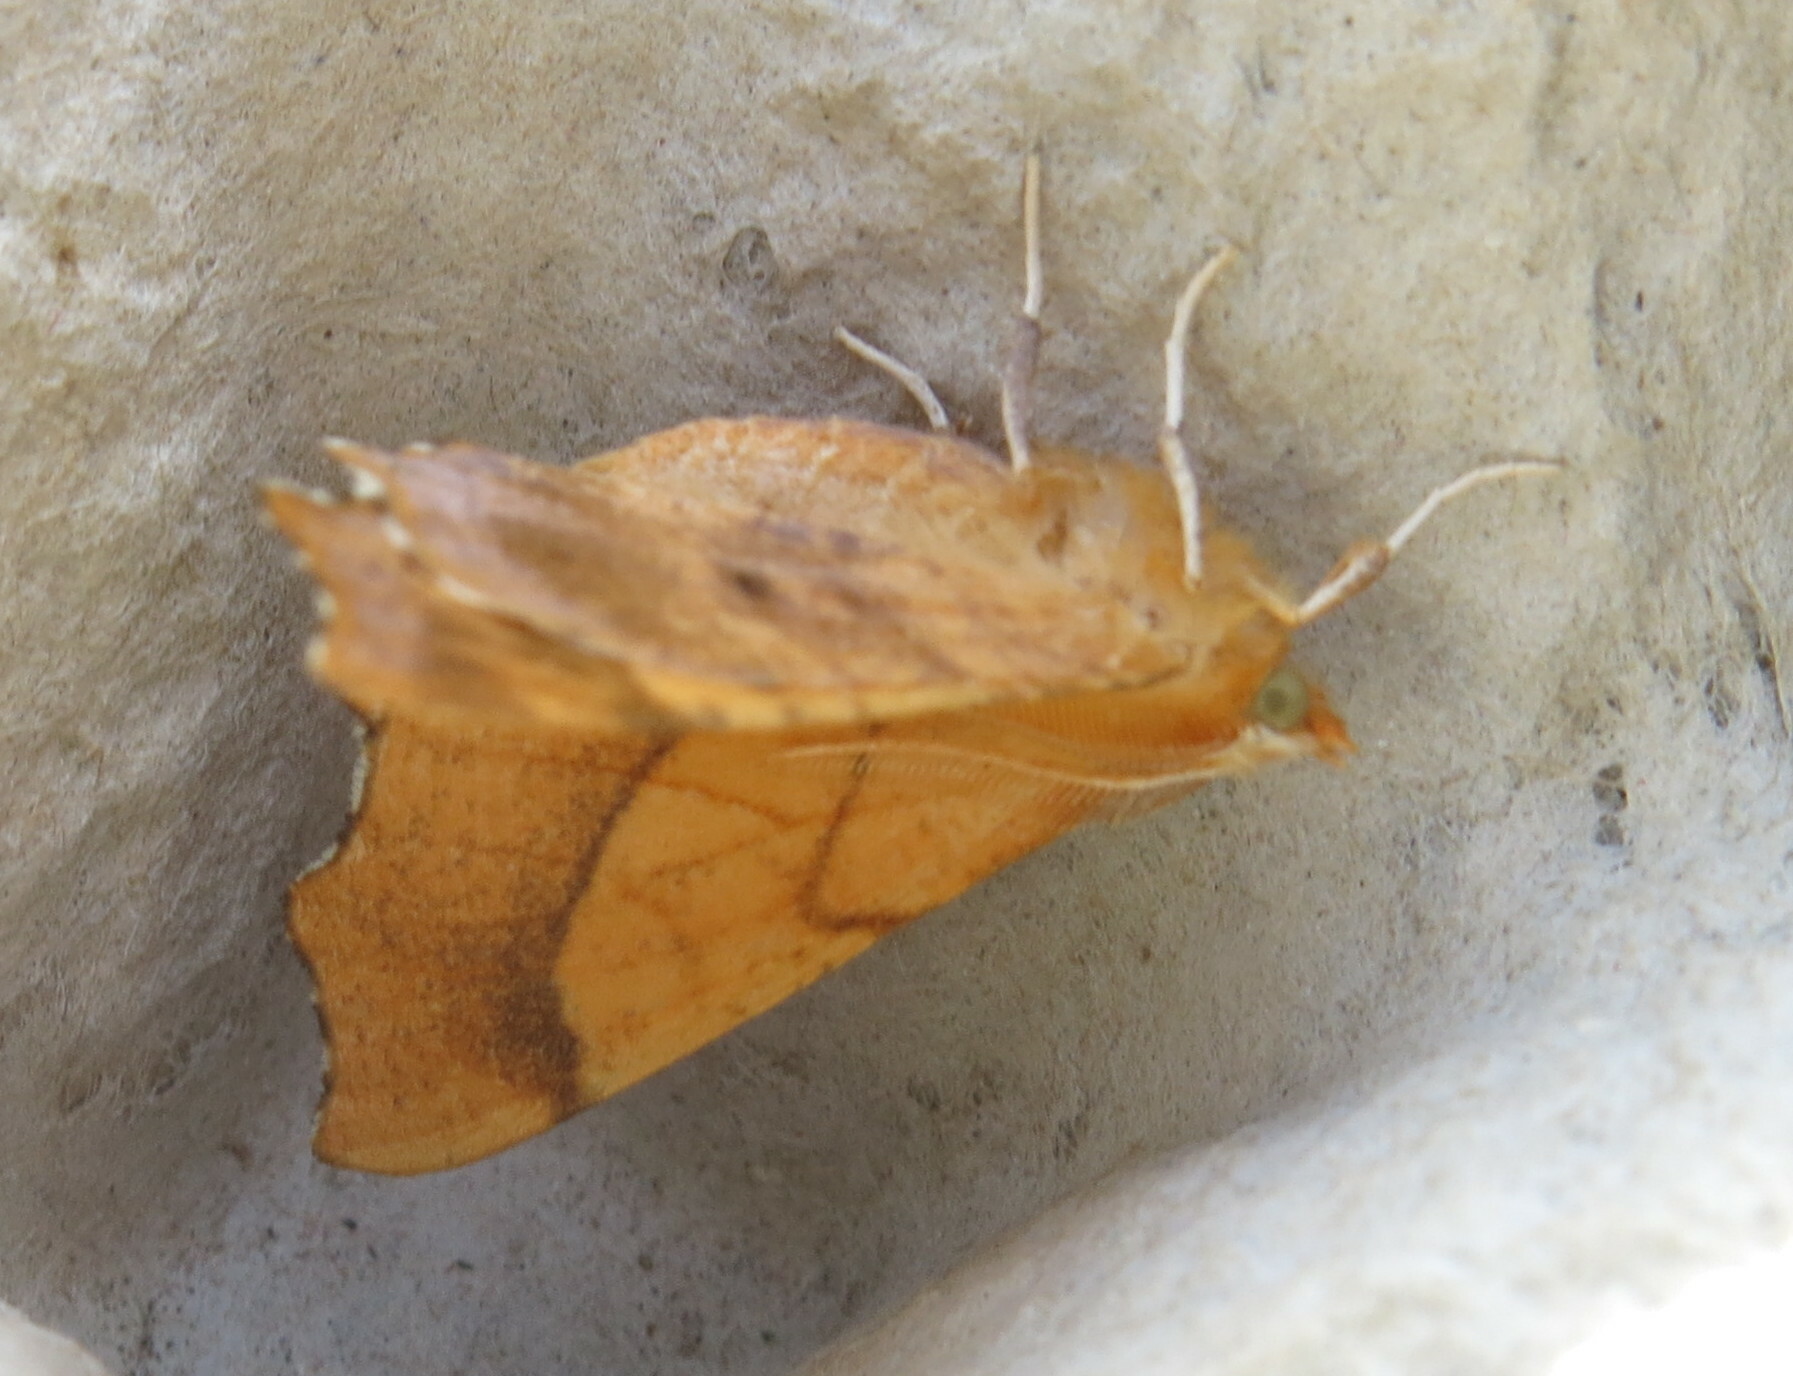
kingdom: Animalia
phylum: Arthropoda
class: Insecta
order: Lepidoptera
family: Geometridae
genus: Ennomos
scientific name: Ennomos quercinaria
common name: August thorn
